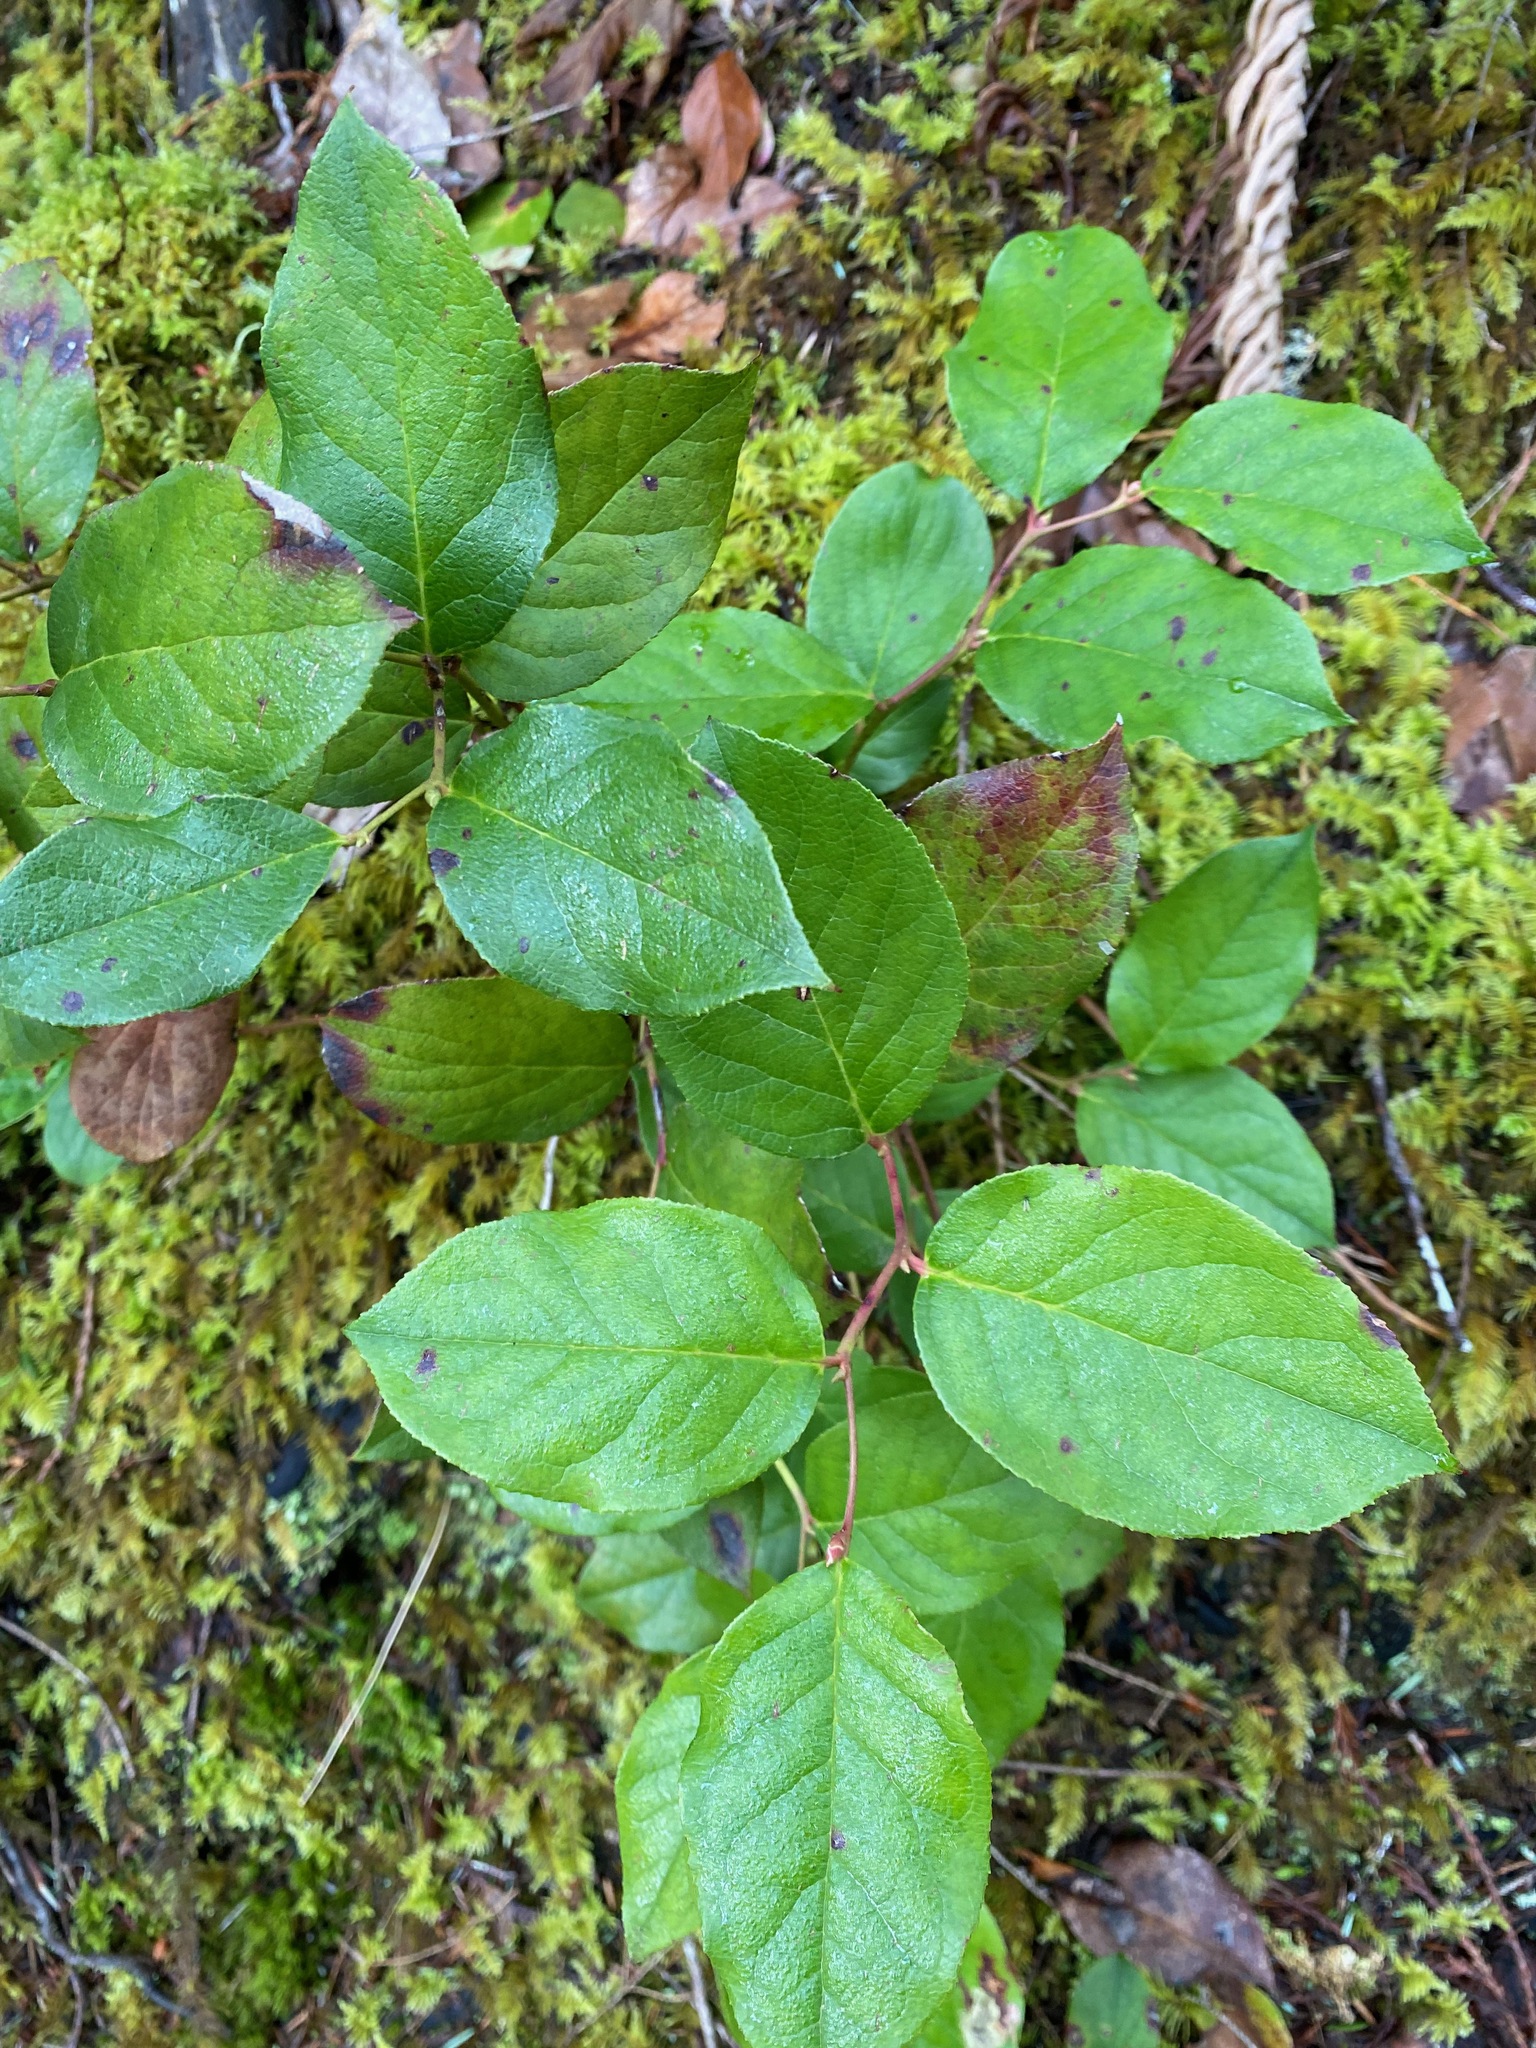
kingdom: Plantae
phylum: Tracheophyta
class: Magnoliopsida
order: Ericales
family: Ericaceae
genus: Gaultheria
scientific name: Gaultheria shallon
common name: Shallon
